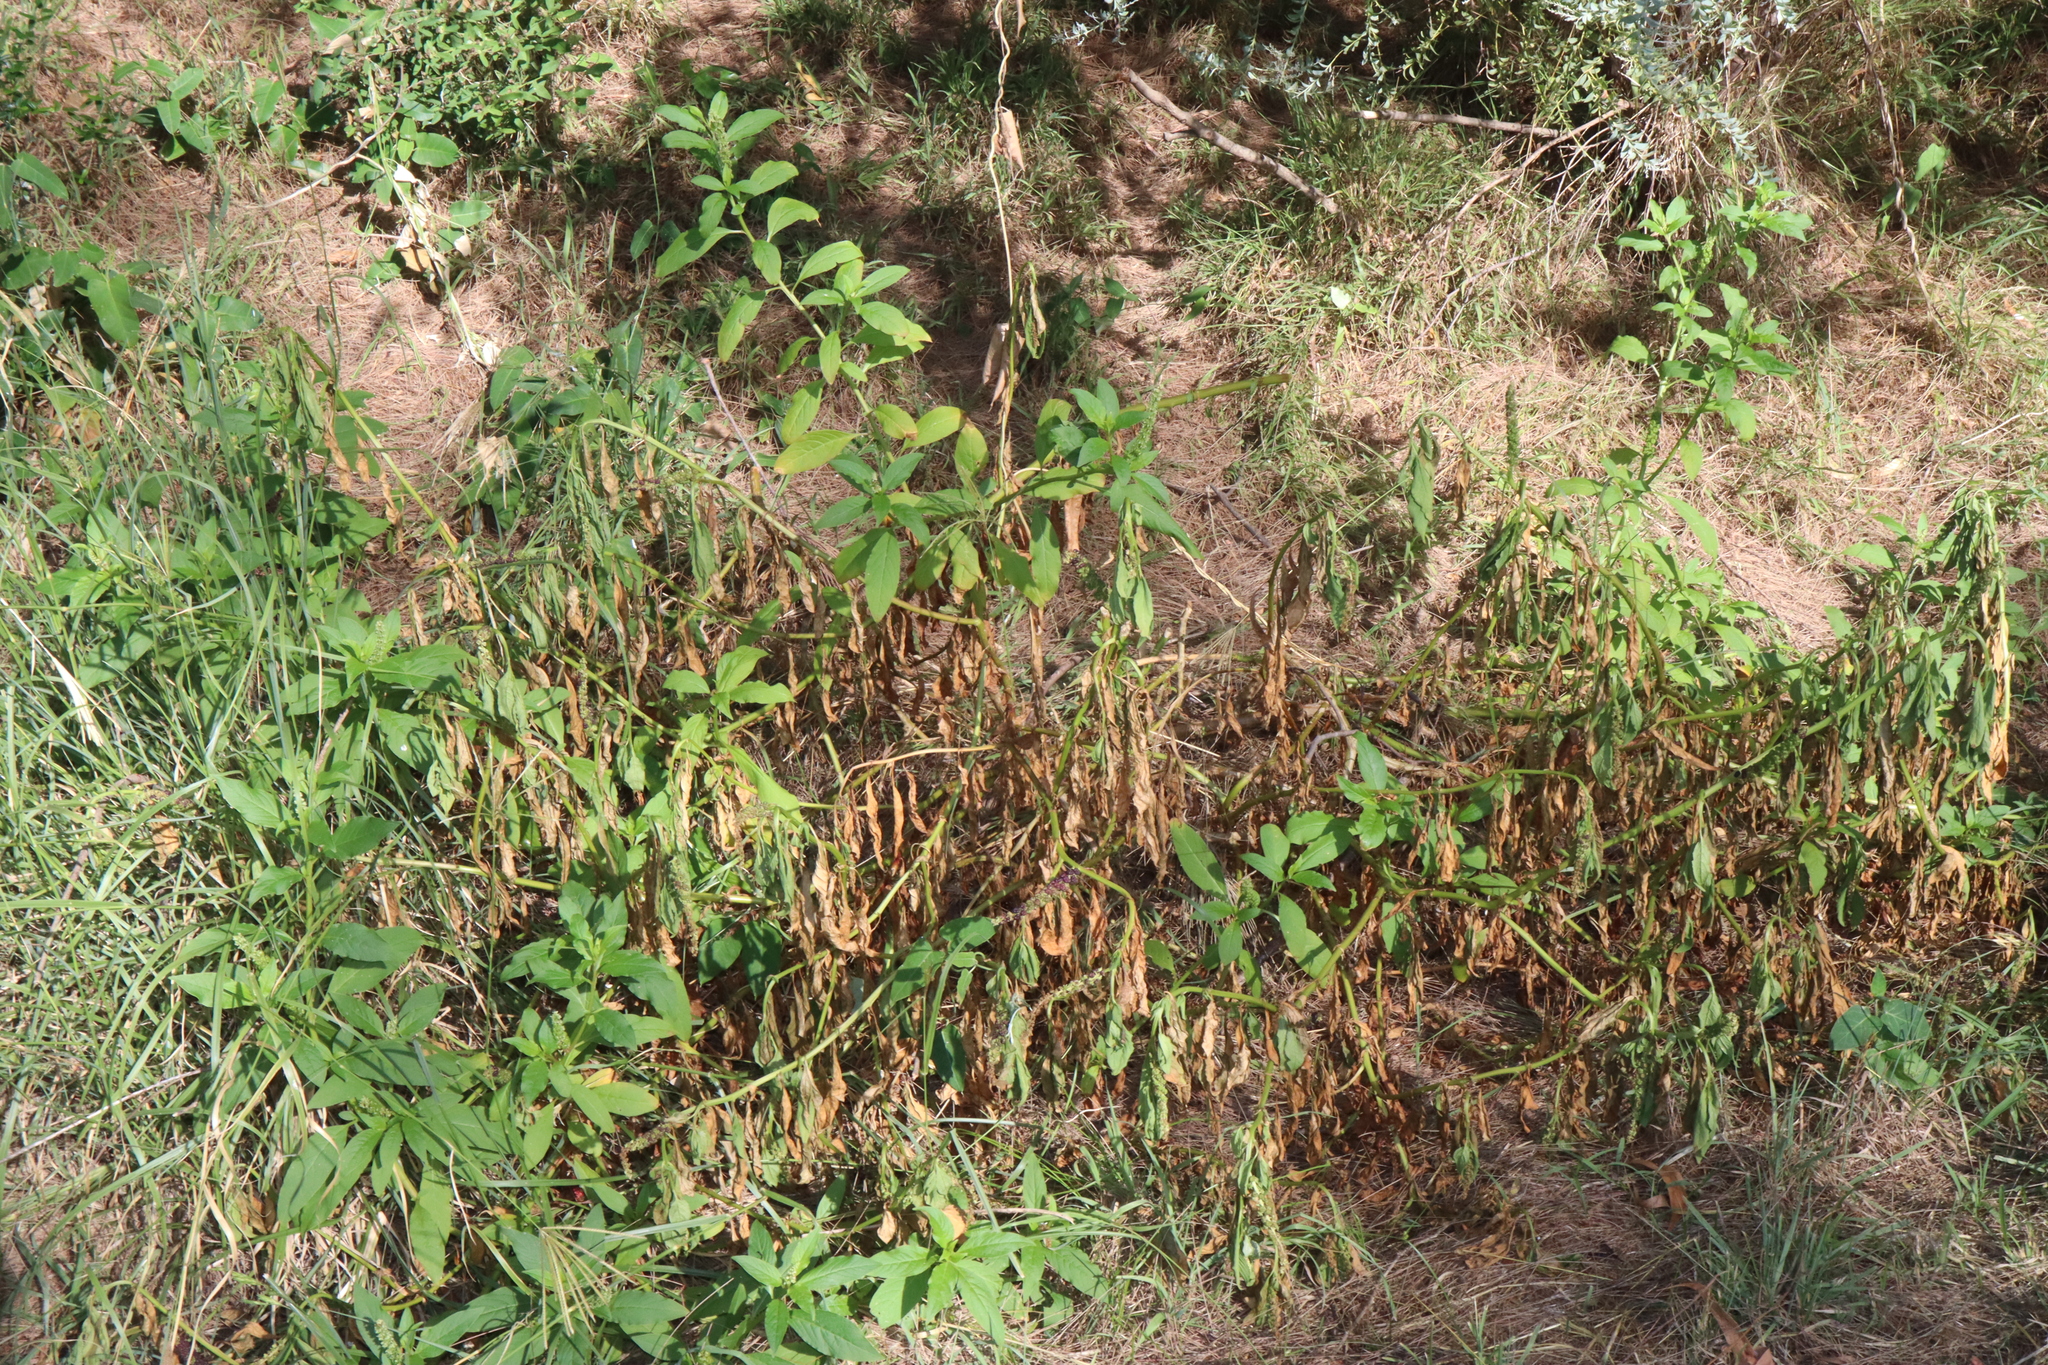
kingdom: Plantae
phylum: Tracheophyta
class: Magnoliopsida
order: Caryophyllales
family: Phytolaccaceae
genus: Phytolacca
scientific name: Phytolacca icosandra
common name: Button pokeweed
